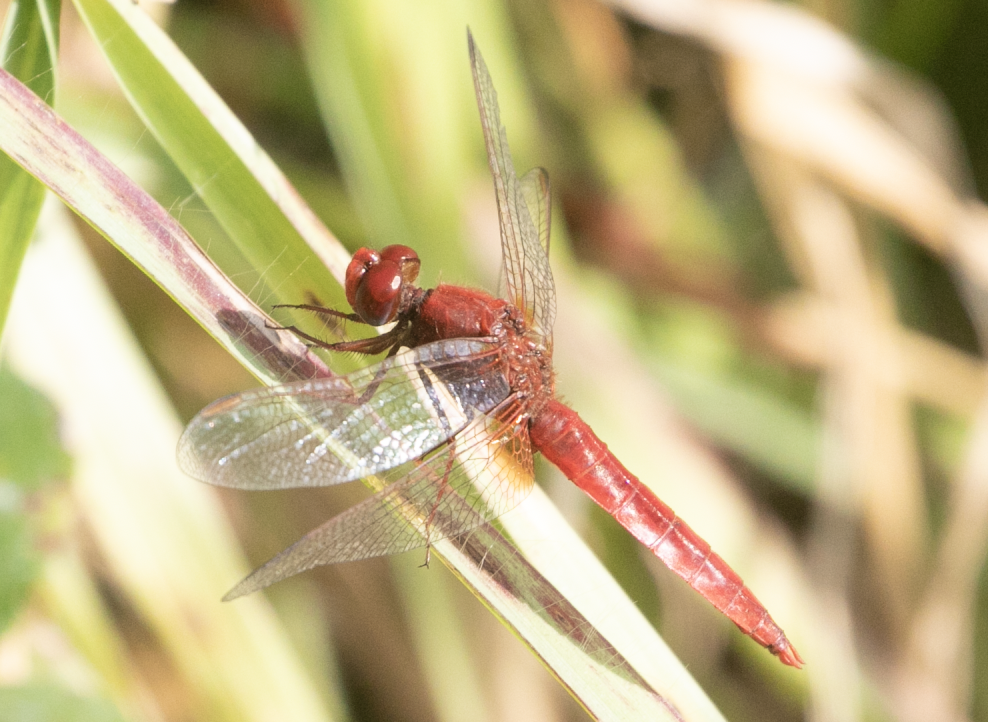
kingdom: Animalia
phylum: Arthropoda
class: Insecta
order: Odonata
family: Libellulidae
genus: Crocothemis
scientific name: Crocothemis erythraea
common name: Scarlet dragonfly
